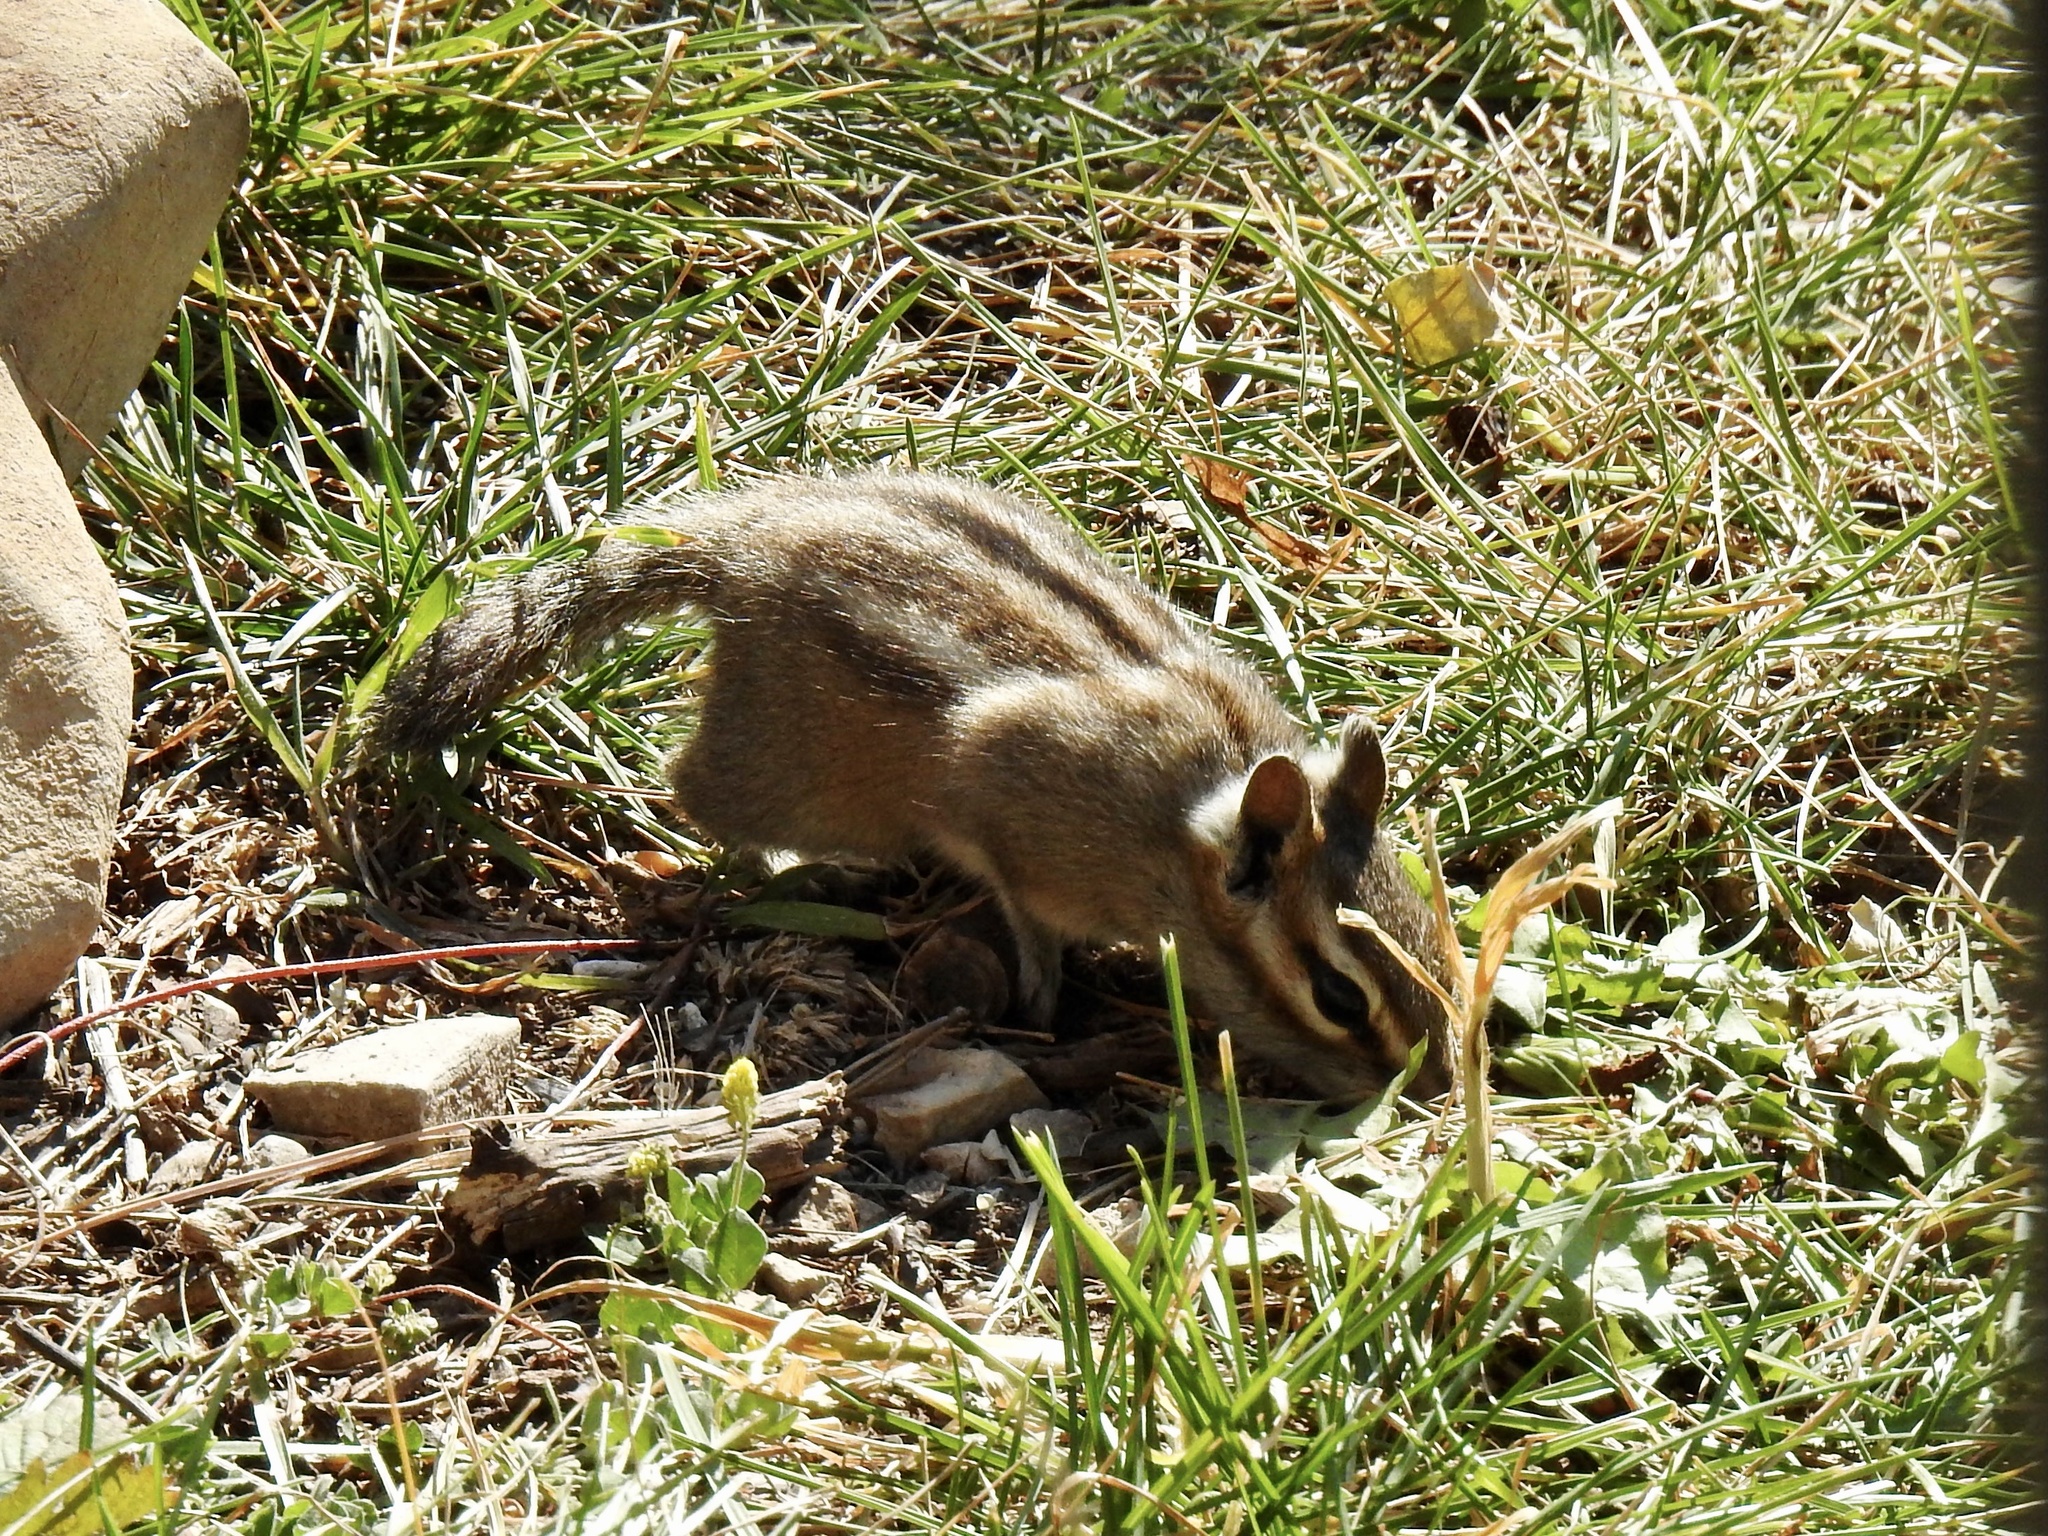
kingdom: Animalia
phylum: Chordata
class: Mammalia
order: Rodentia
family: Sciuridae
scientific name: Sciuridae
